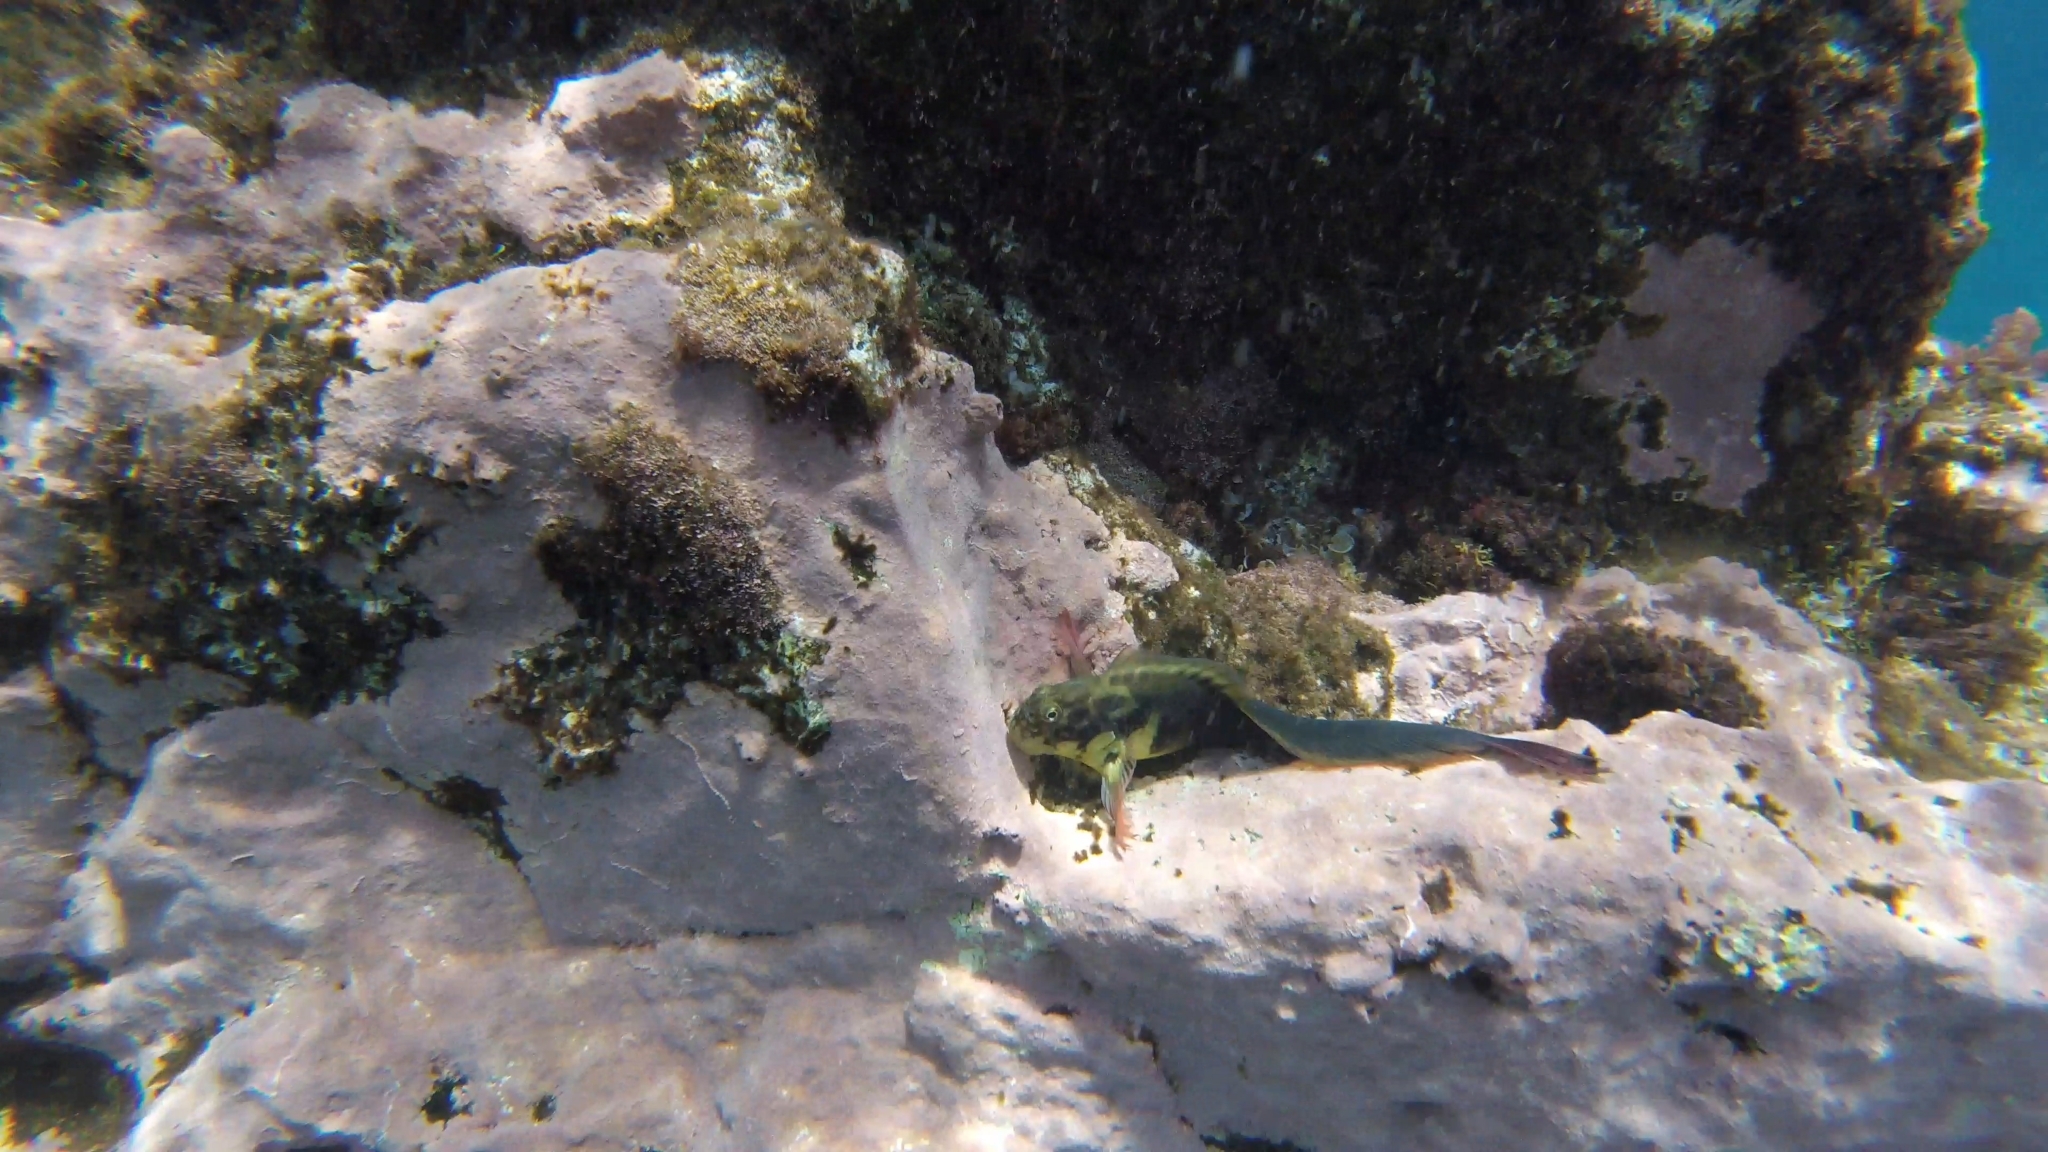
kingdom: Animalia
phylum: Chordata
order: Perciformes
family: Blenniidae
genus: Ophioblennius
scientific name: Ophioblennius atlanticus
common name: Redlip blenny
